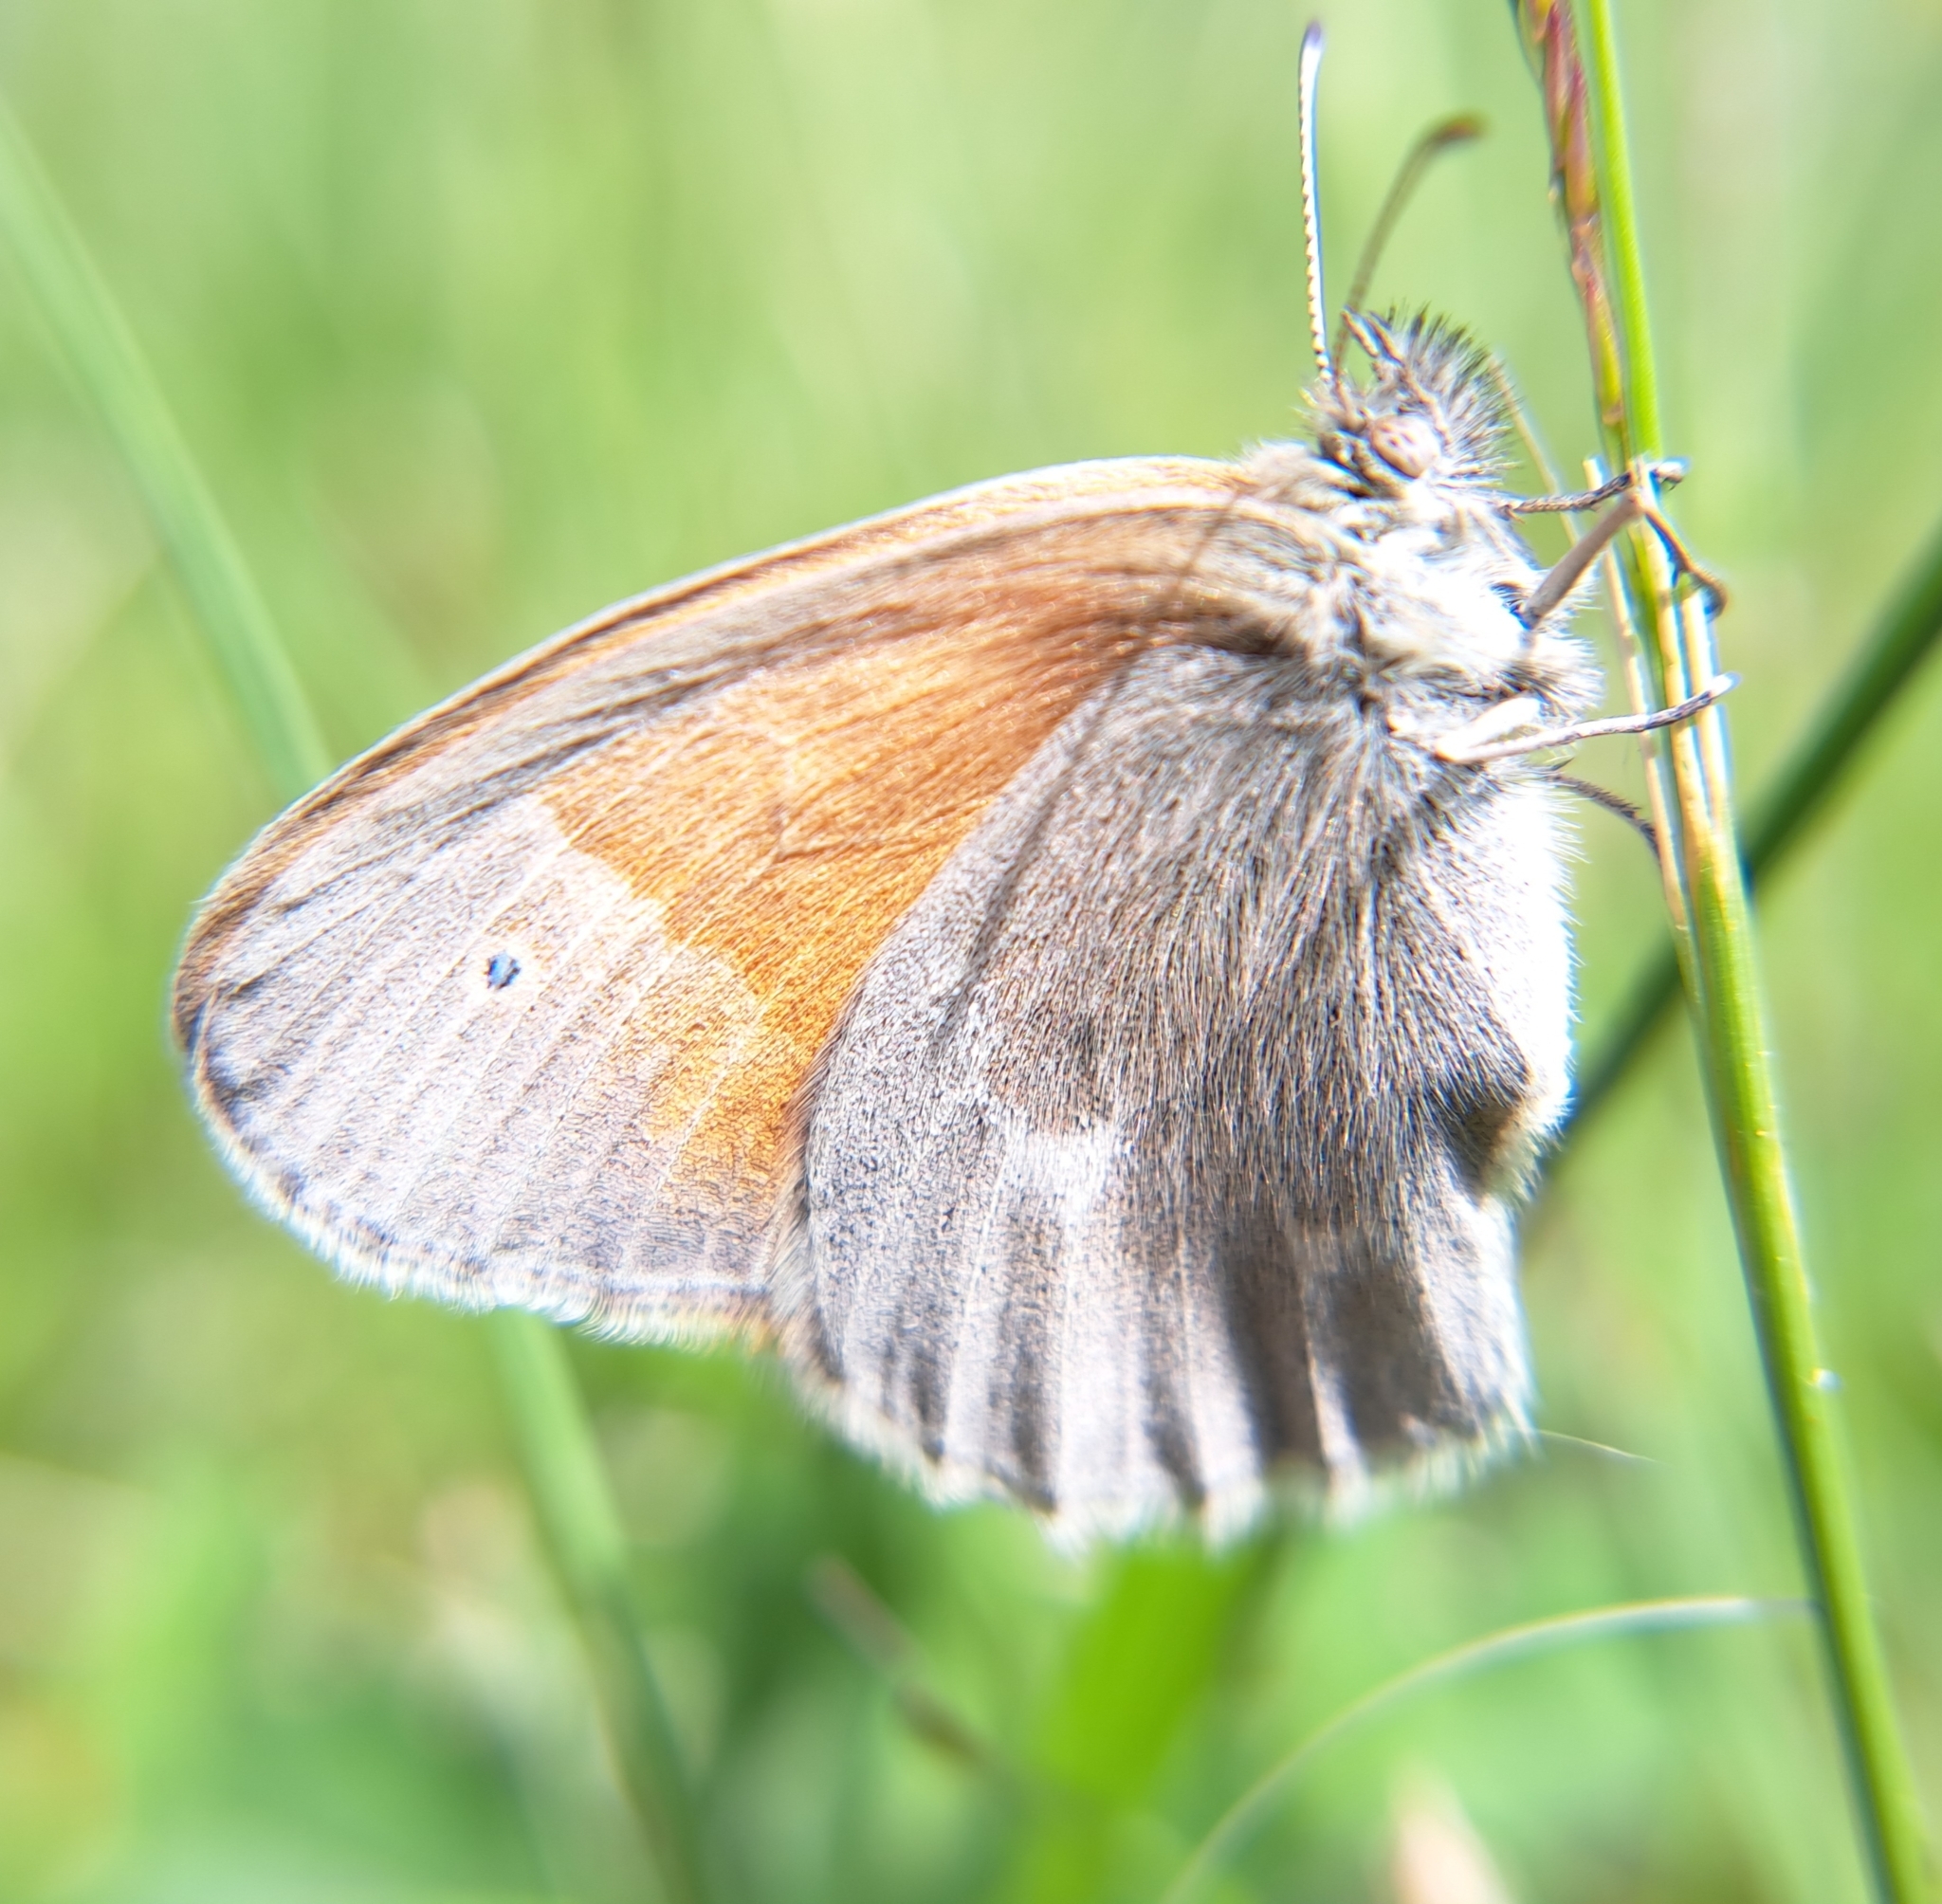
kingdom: Animalia
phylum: Arthropoda
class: Insecta
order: Lepidoptera
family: Nymphalidae
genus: Coenonympha
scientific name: Coenonympha california
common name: Common ringlet
